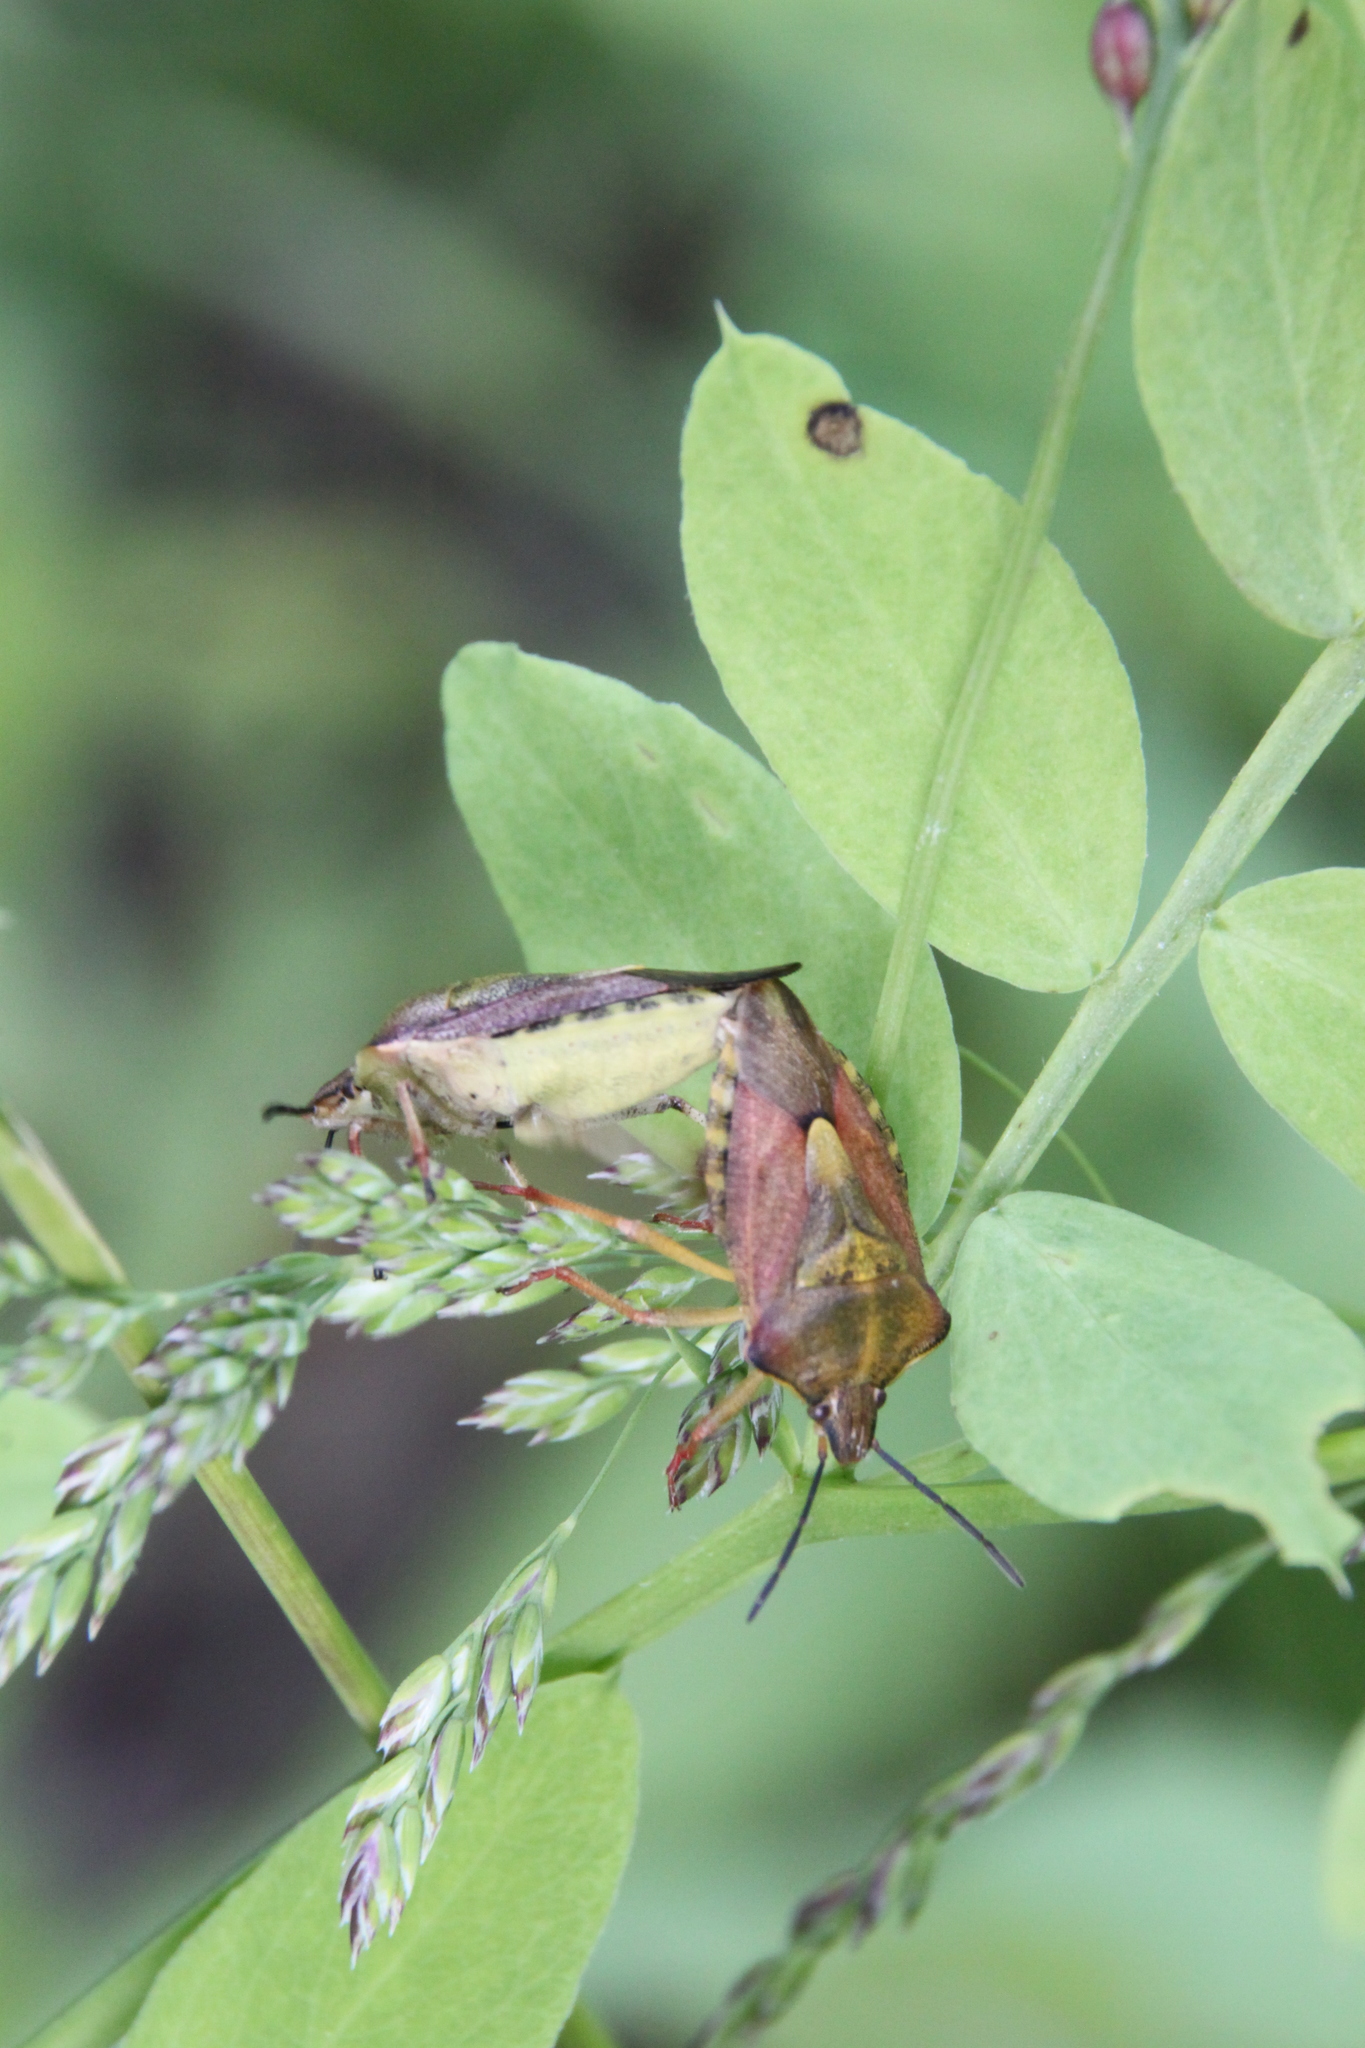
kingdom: Animalia
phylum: Arthropoda
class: Insecta
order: Hemiptera
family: Pentatomidae
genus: Carpocoris
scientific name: Carpocoris purpureipennis
